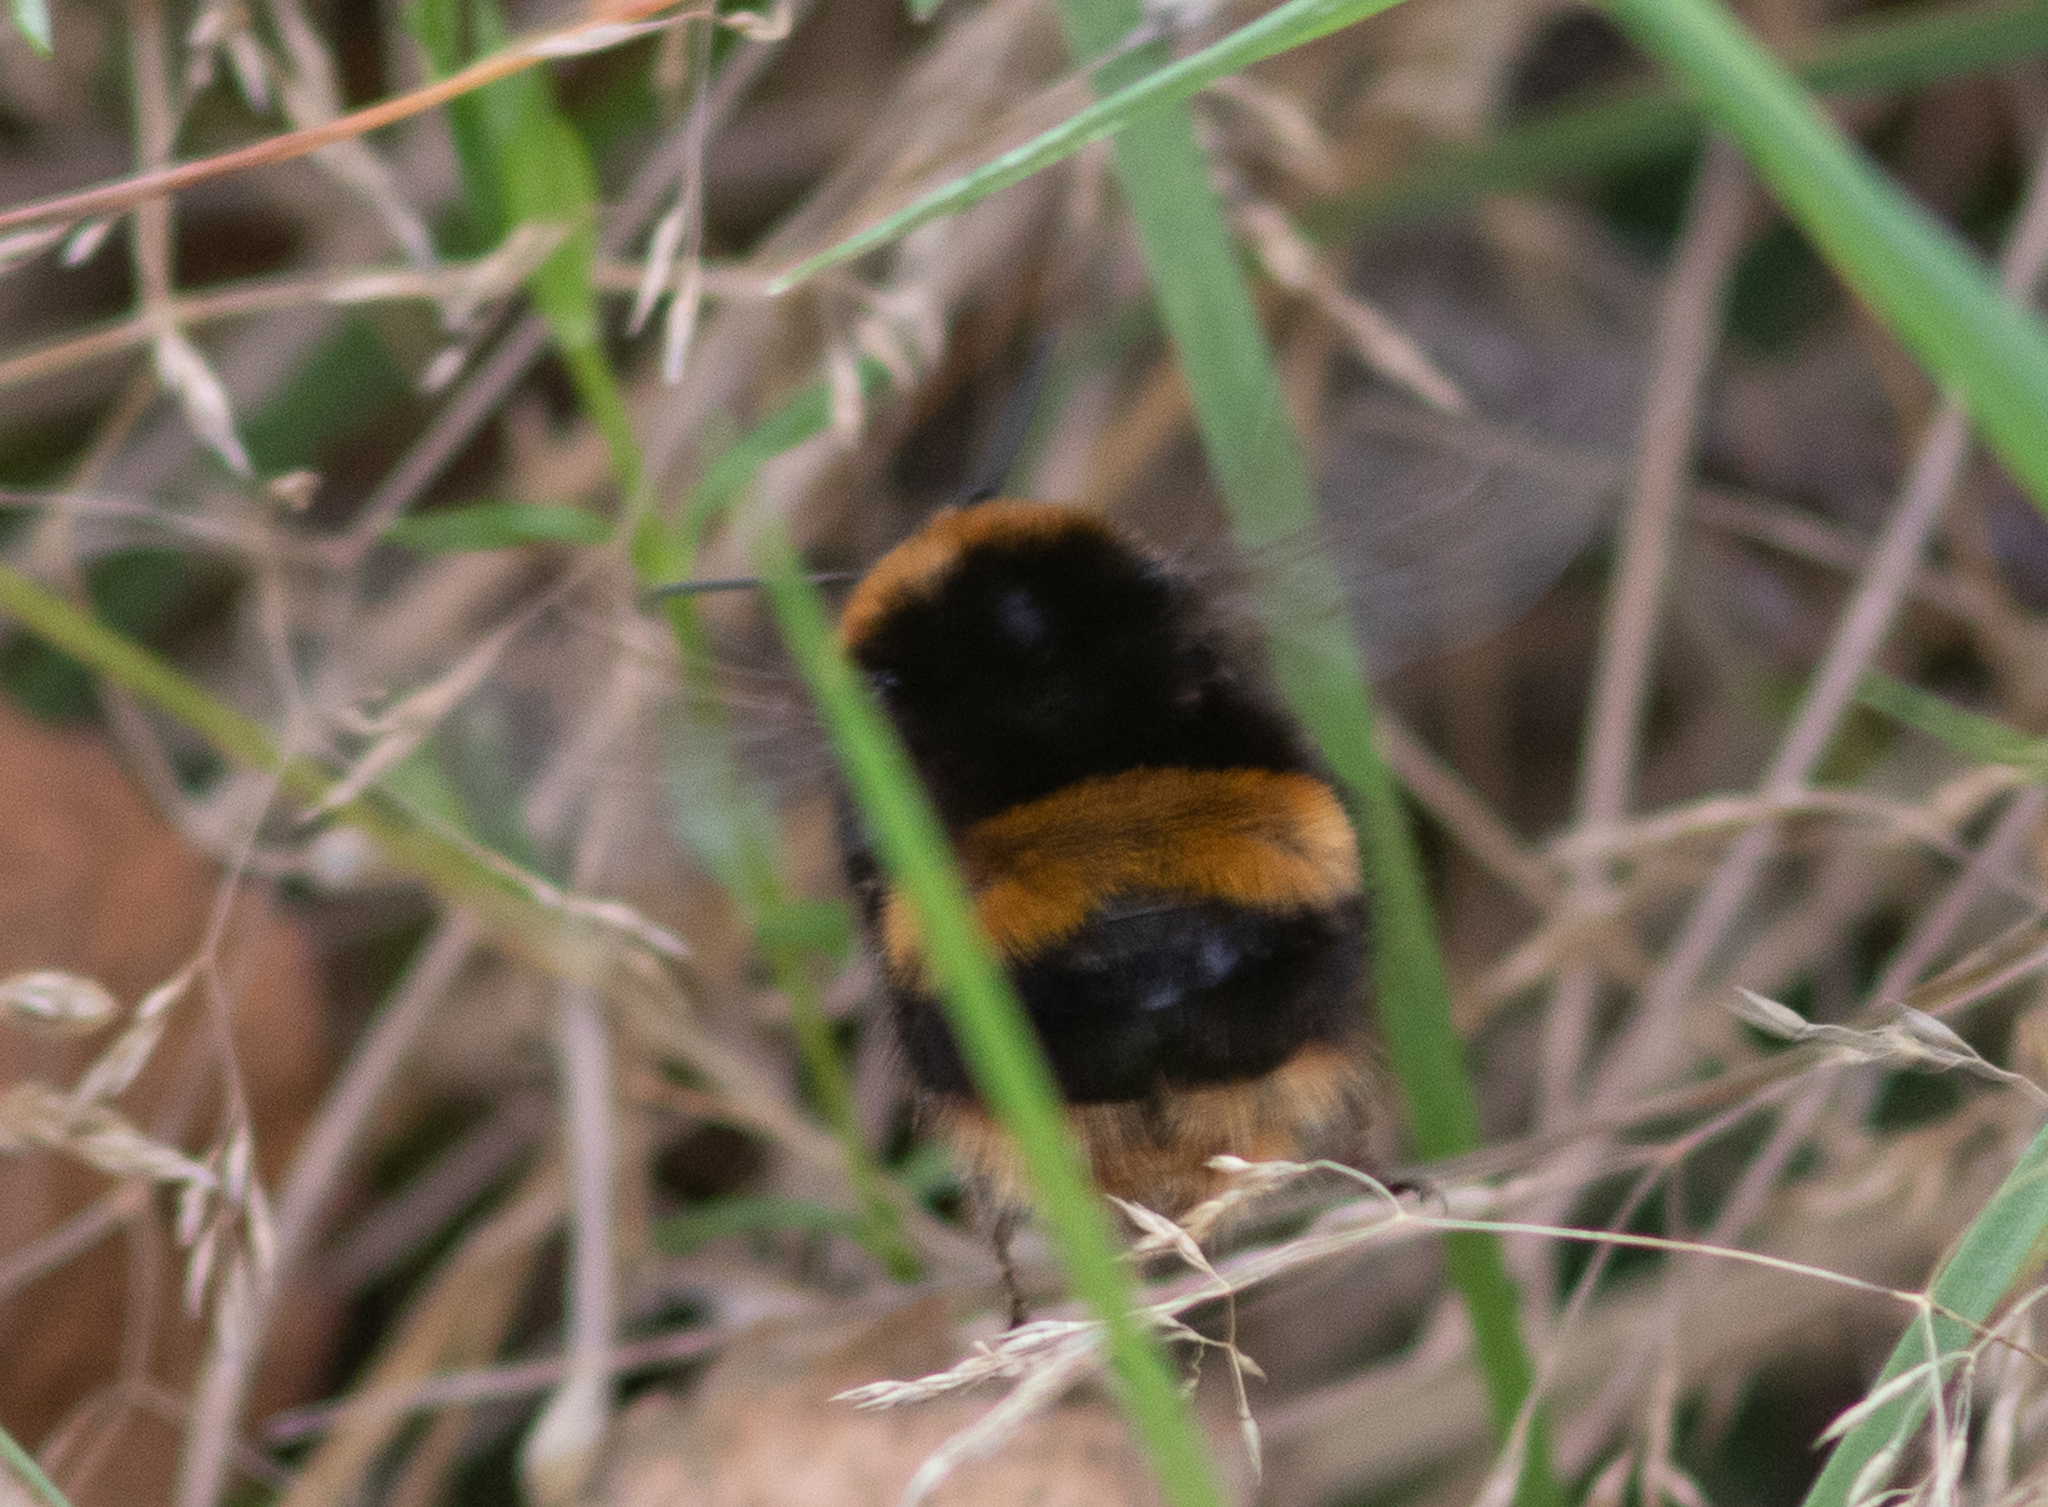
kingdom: Animalia
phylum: Arthropoda
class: Insecta
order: Hymenoptera
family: Apidae
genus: Bombus
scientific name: Bombus terrestris
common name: Buff-tailed bumblebee
